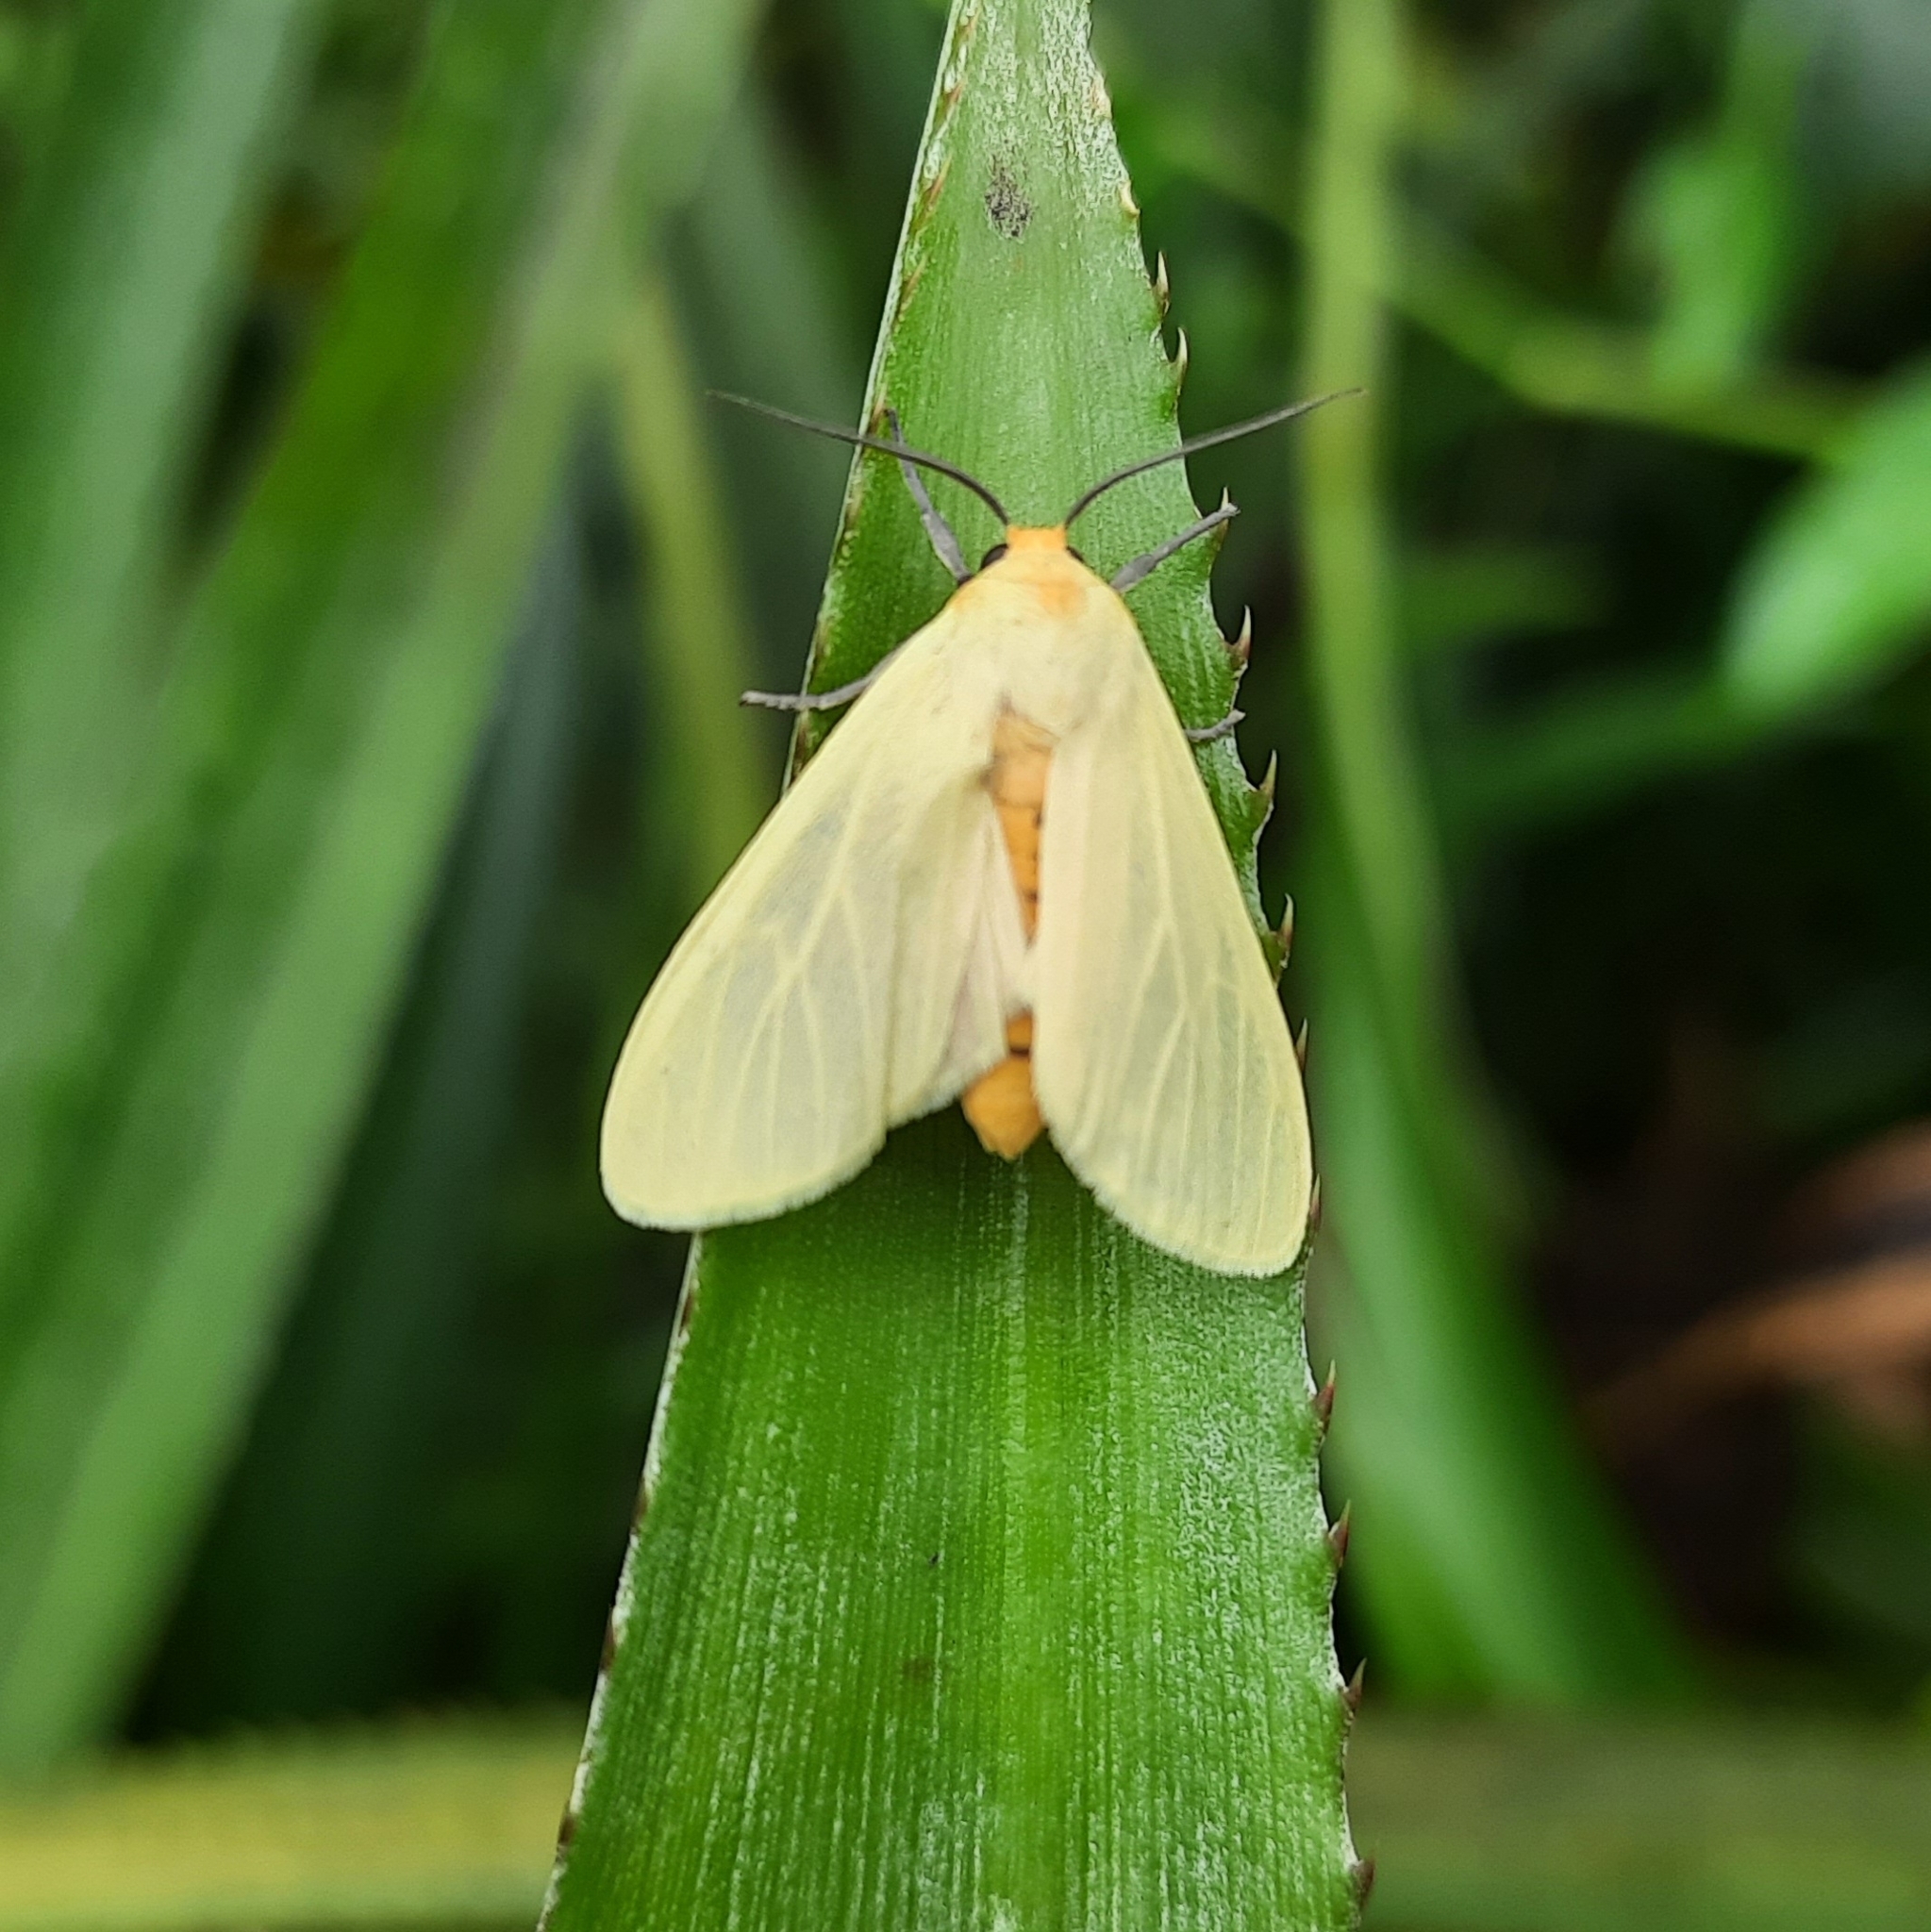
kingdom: Animalia
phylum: Arthropoda
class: Insecta
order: Lepidoptera
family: Erebidae
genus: Pareuchaetes
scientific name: Pareuchaetes pseudoinsulata
